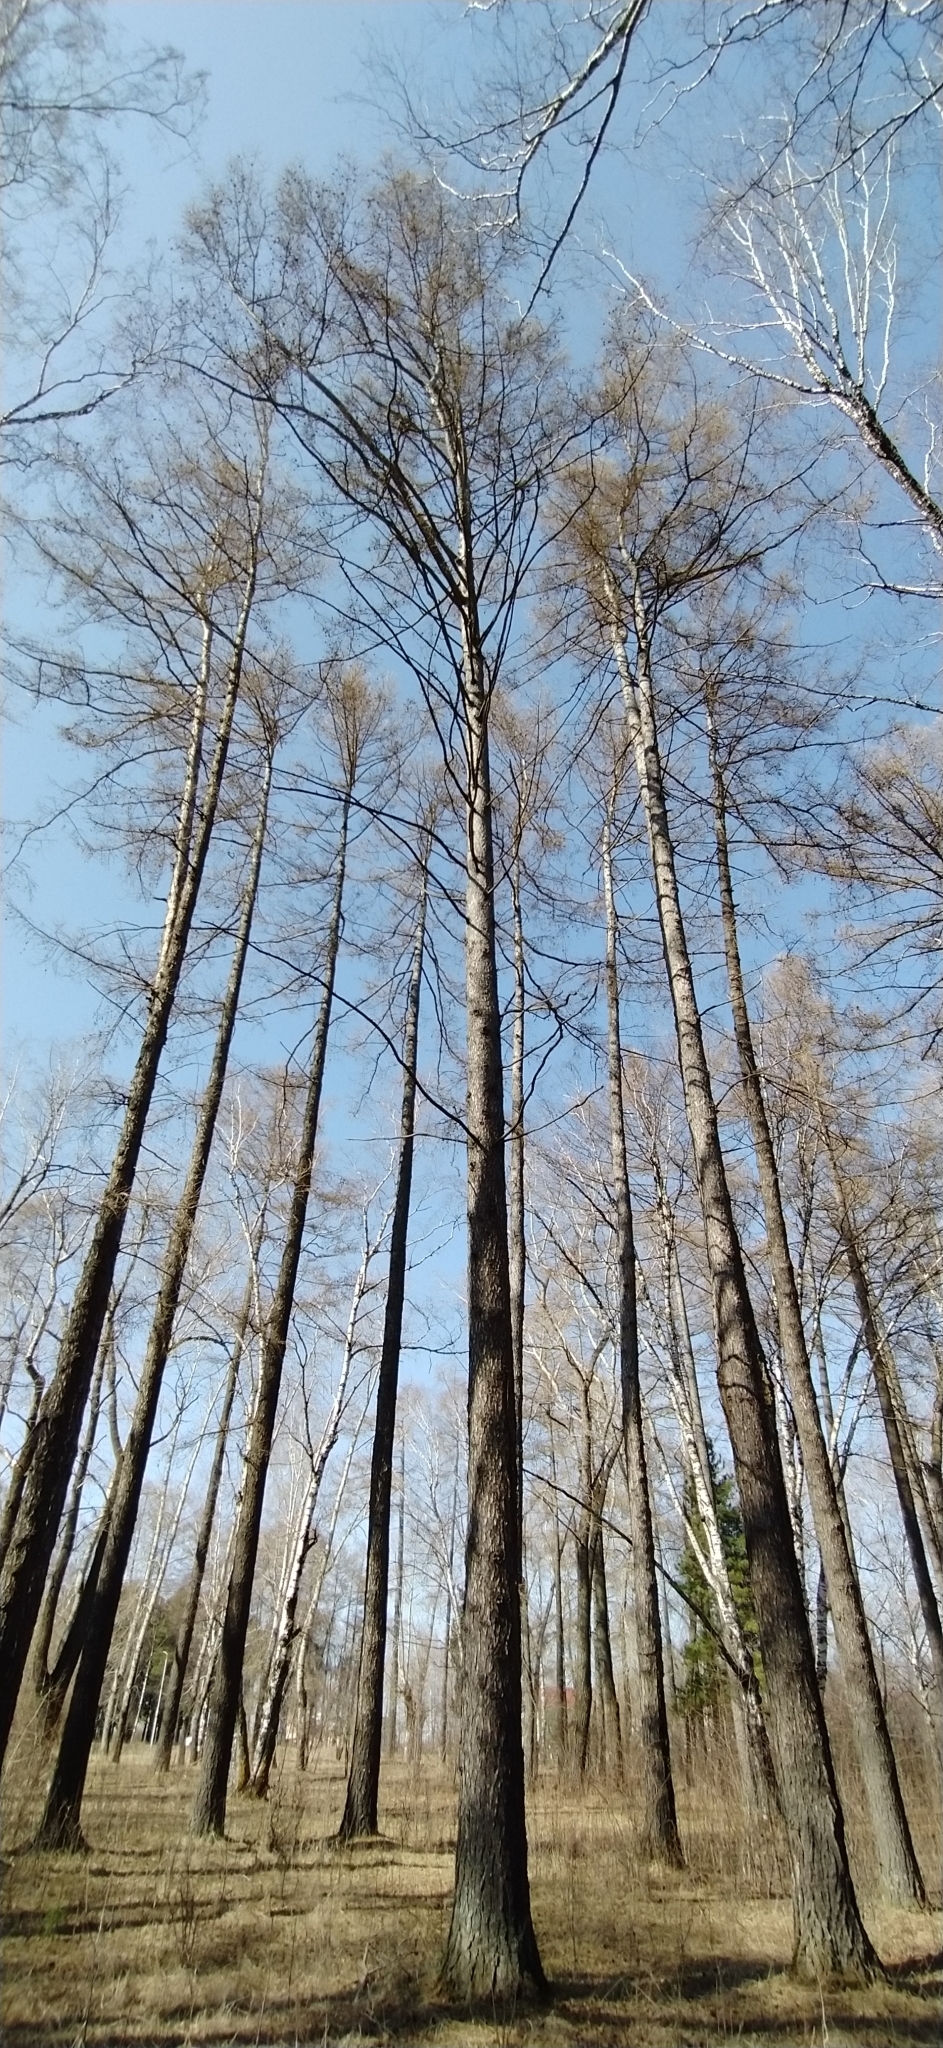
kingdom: Plantae
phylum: Tracheophyta
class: Pinopsida
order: Pinales
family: Pinaceae
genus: Larix
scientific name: Larix sibirica
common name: Siberian larch
